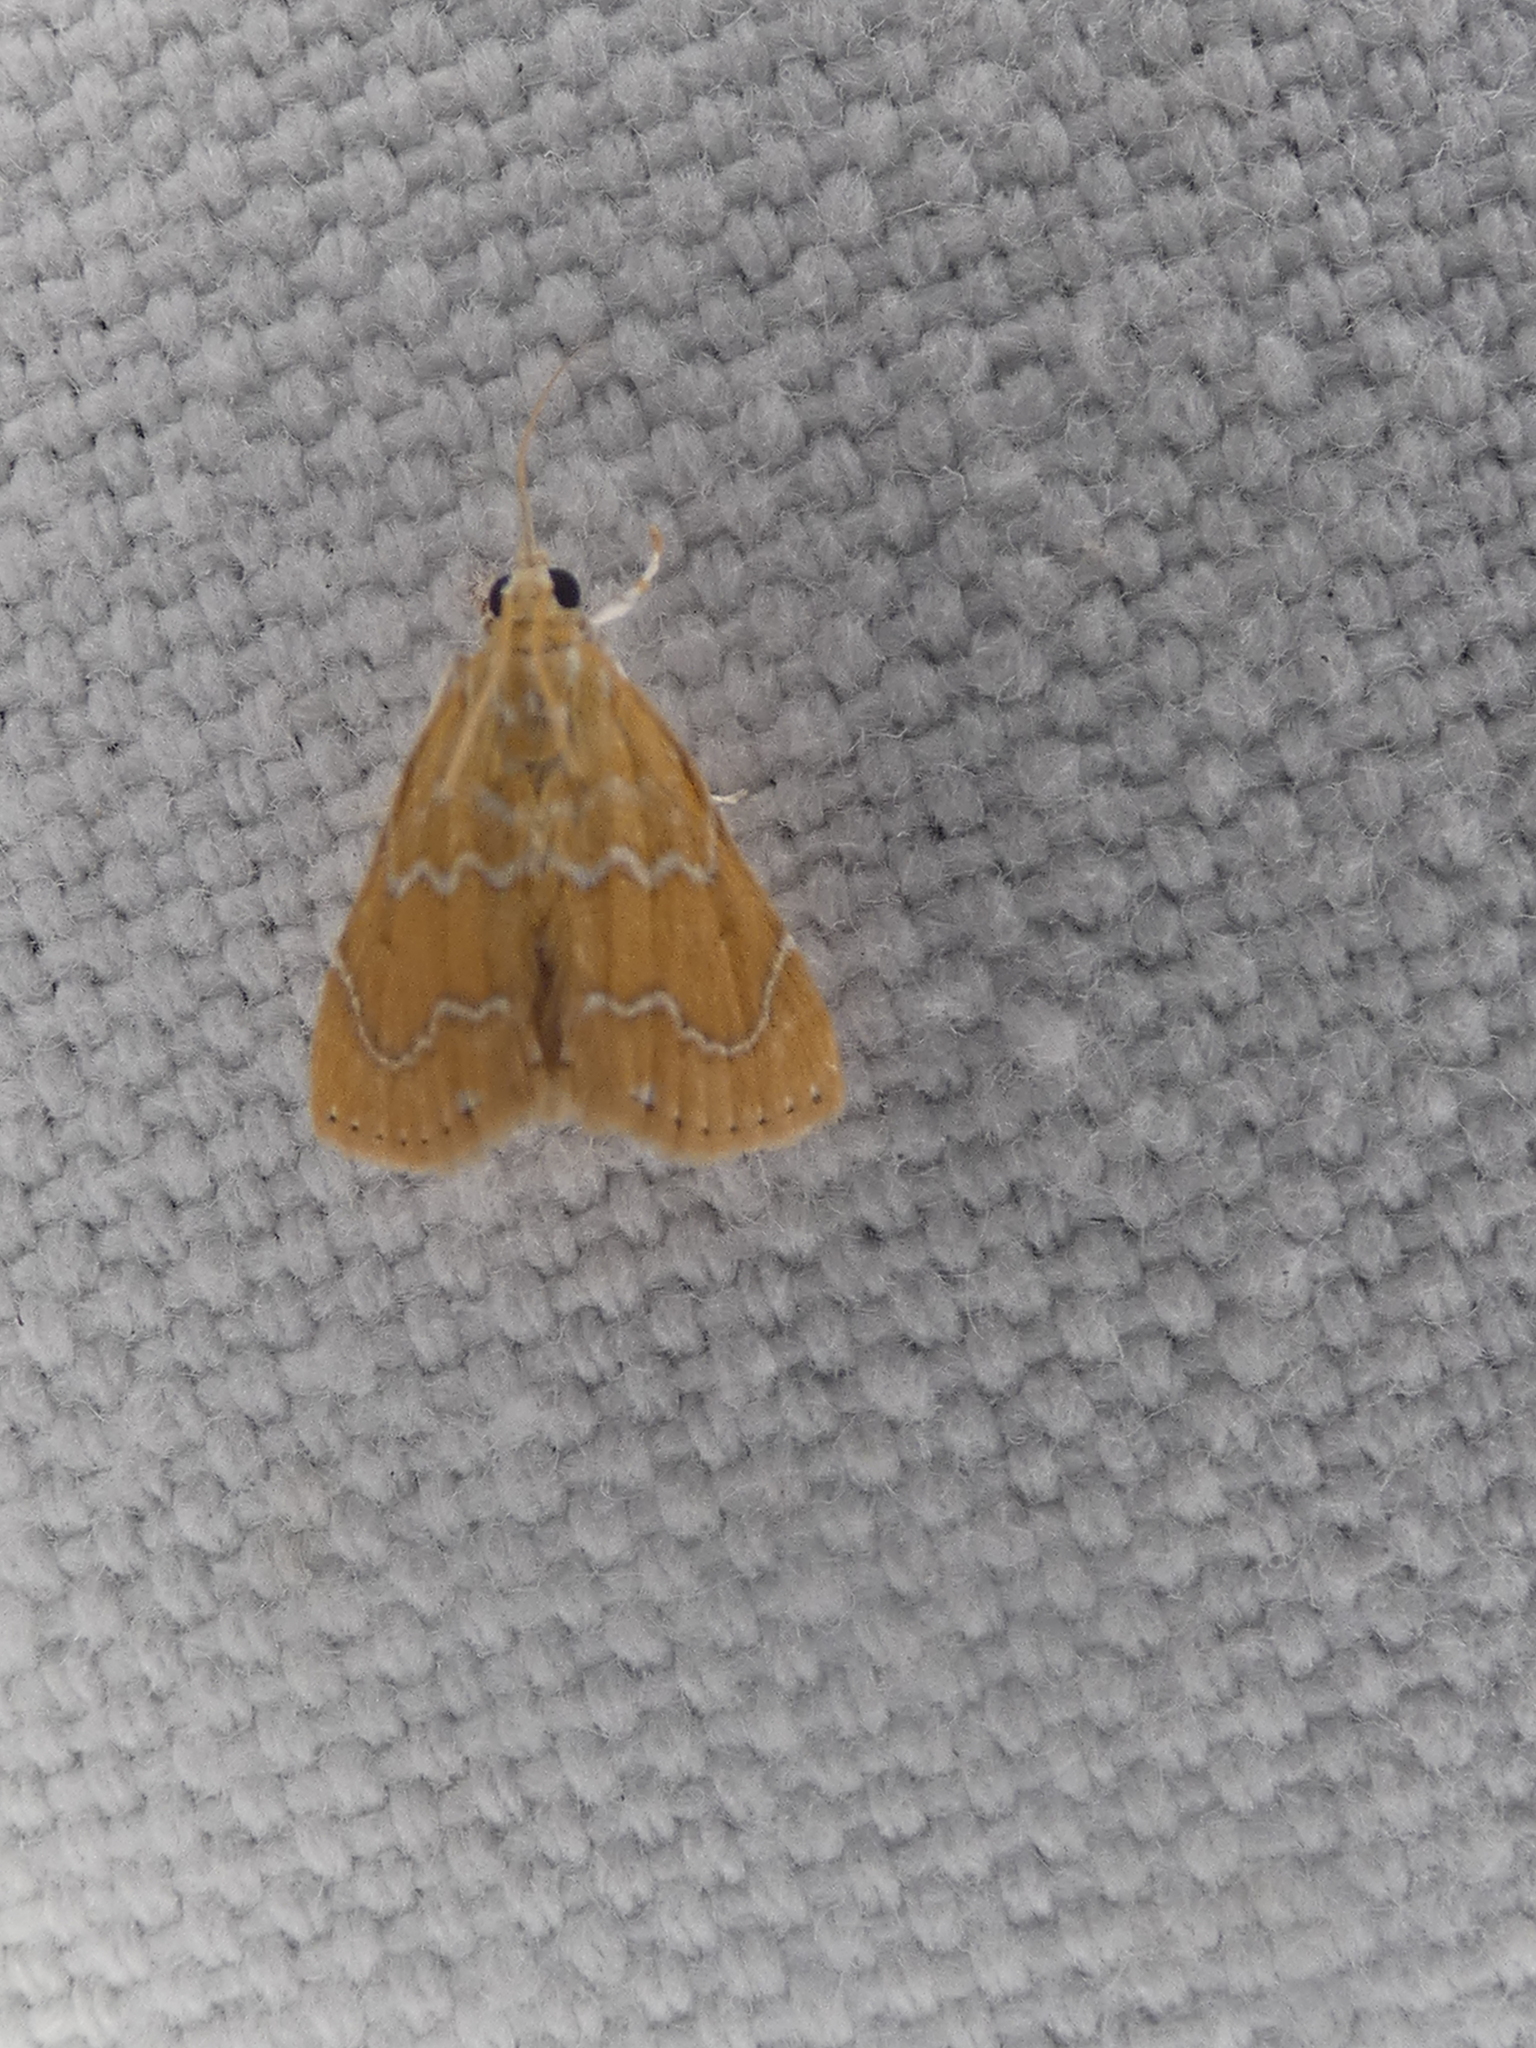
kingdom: Animalia
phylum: Arthropoda
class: Insecta
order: Lepidoptera
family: Crambidae
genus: Glaphyria
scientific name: Glaphyria sesquistrialis
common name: White-roped glaphyria
